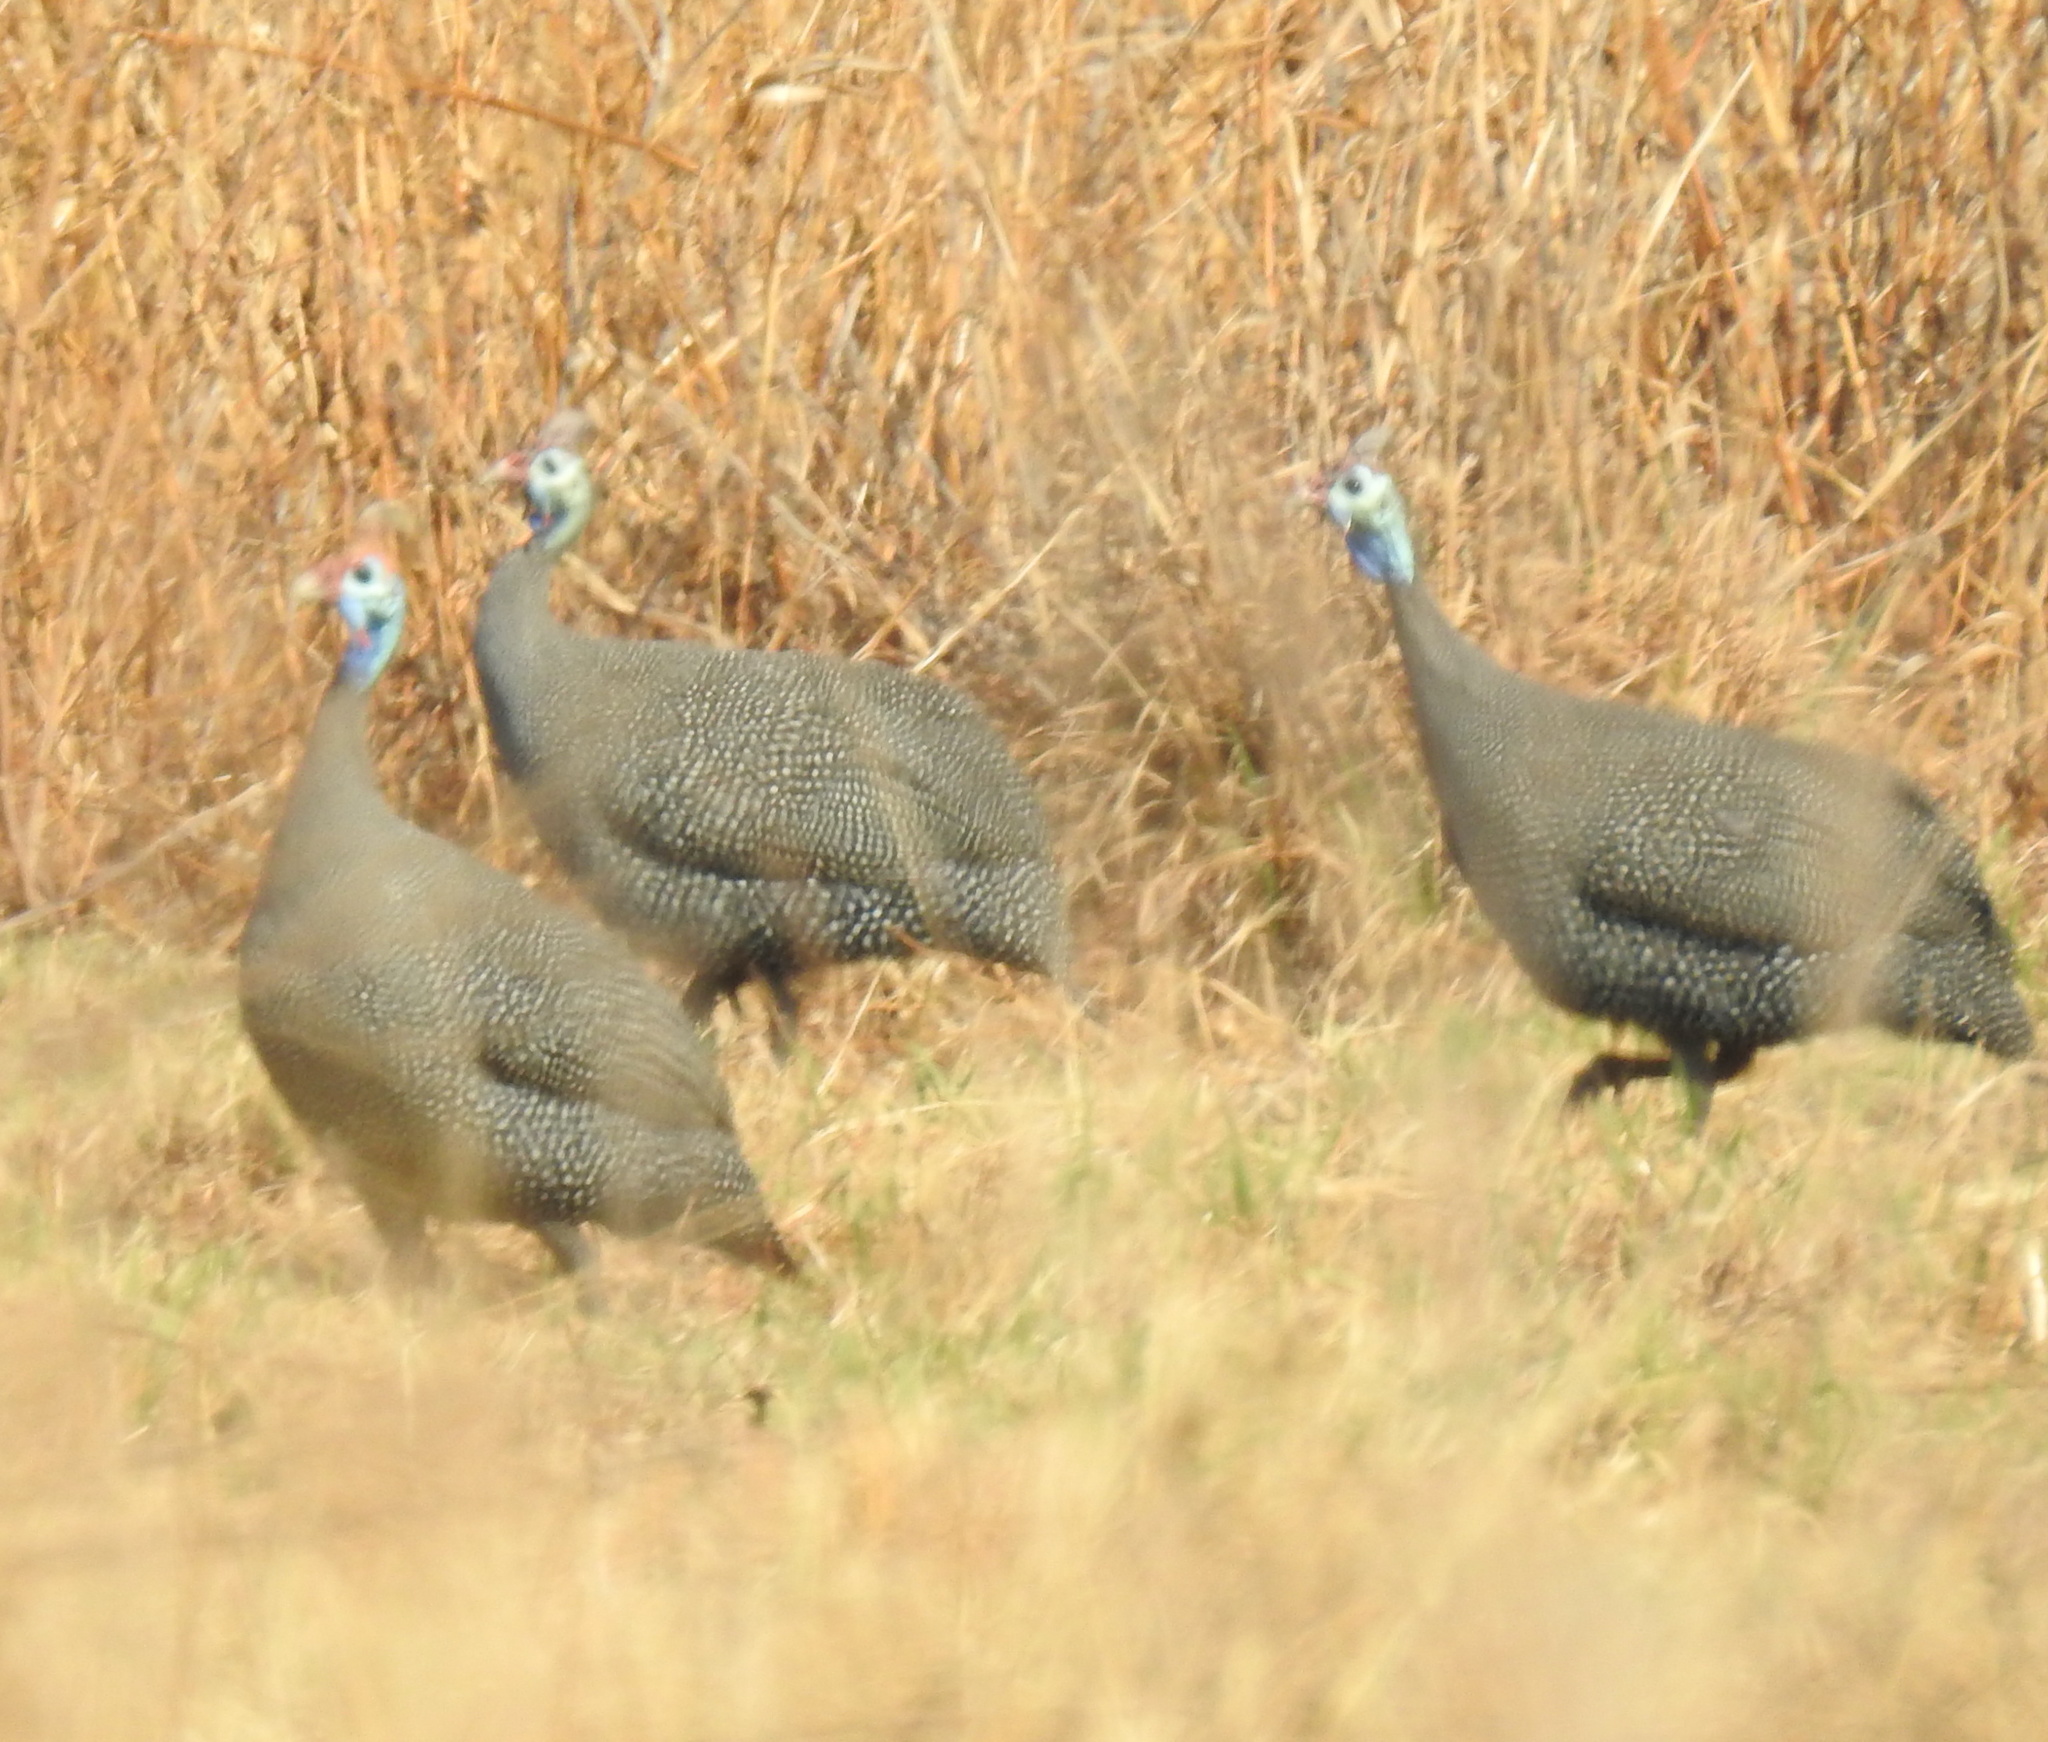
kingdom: Animalia
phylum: Chordata
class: Aves
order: Galliformes
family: Numididae
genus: Numida
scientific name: Numida meleagris
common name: Helmeted guineafowl
